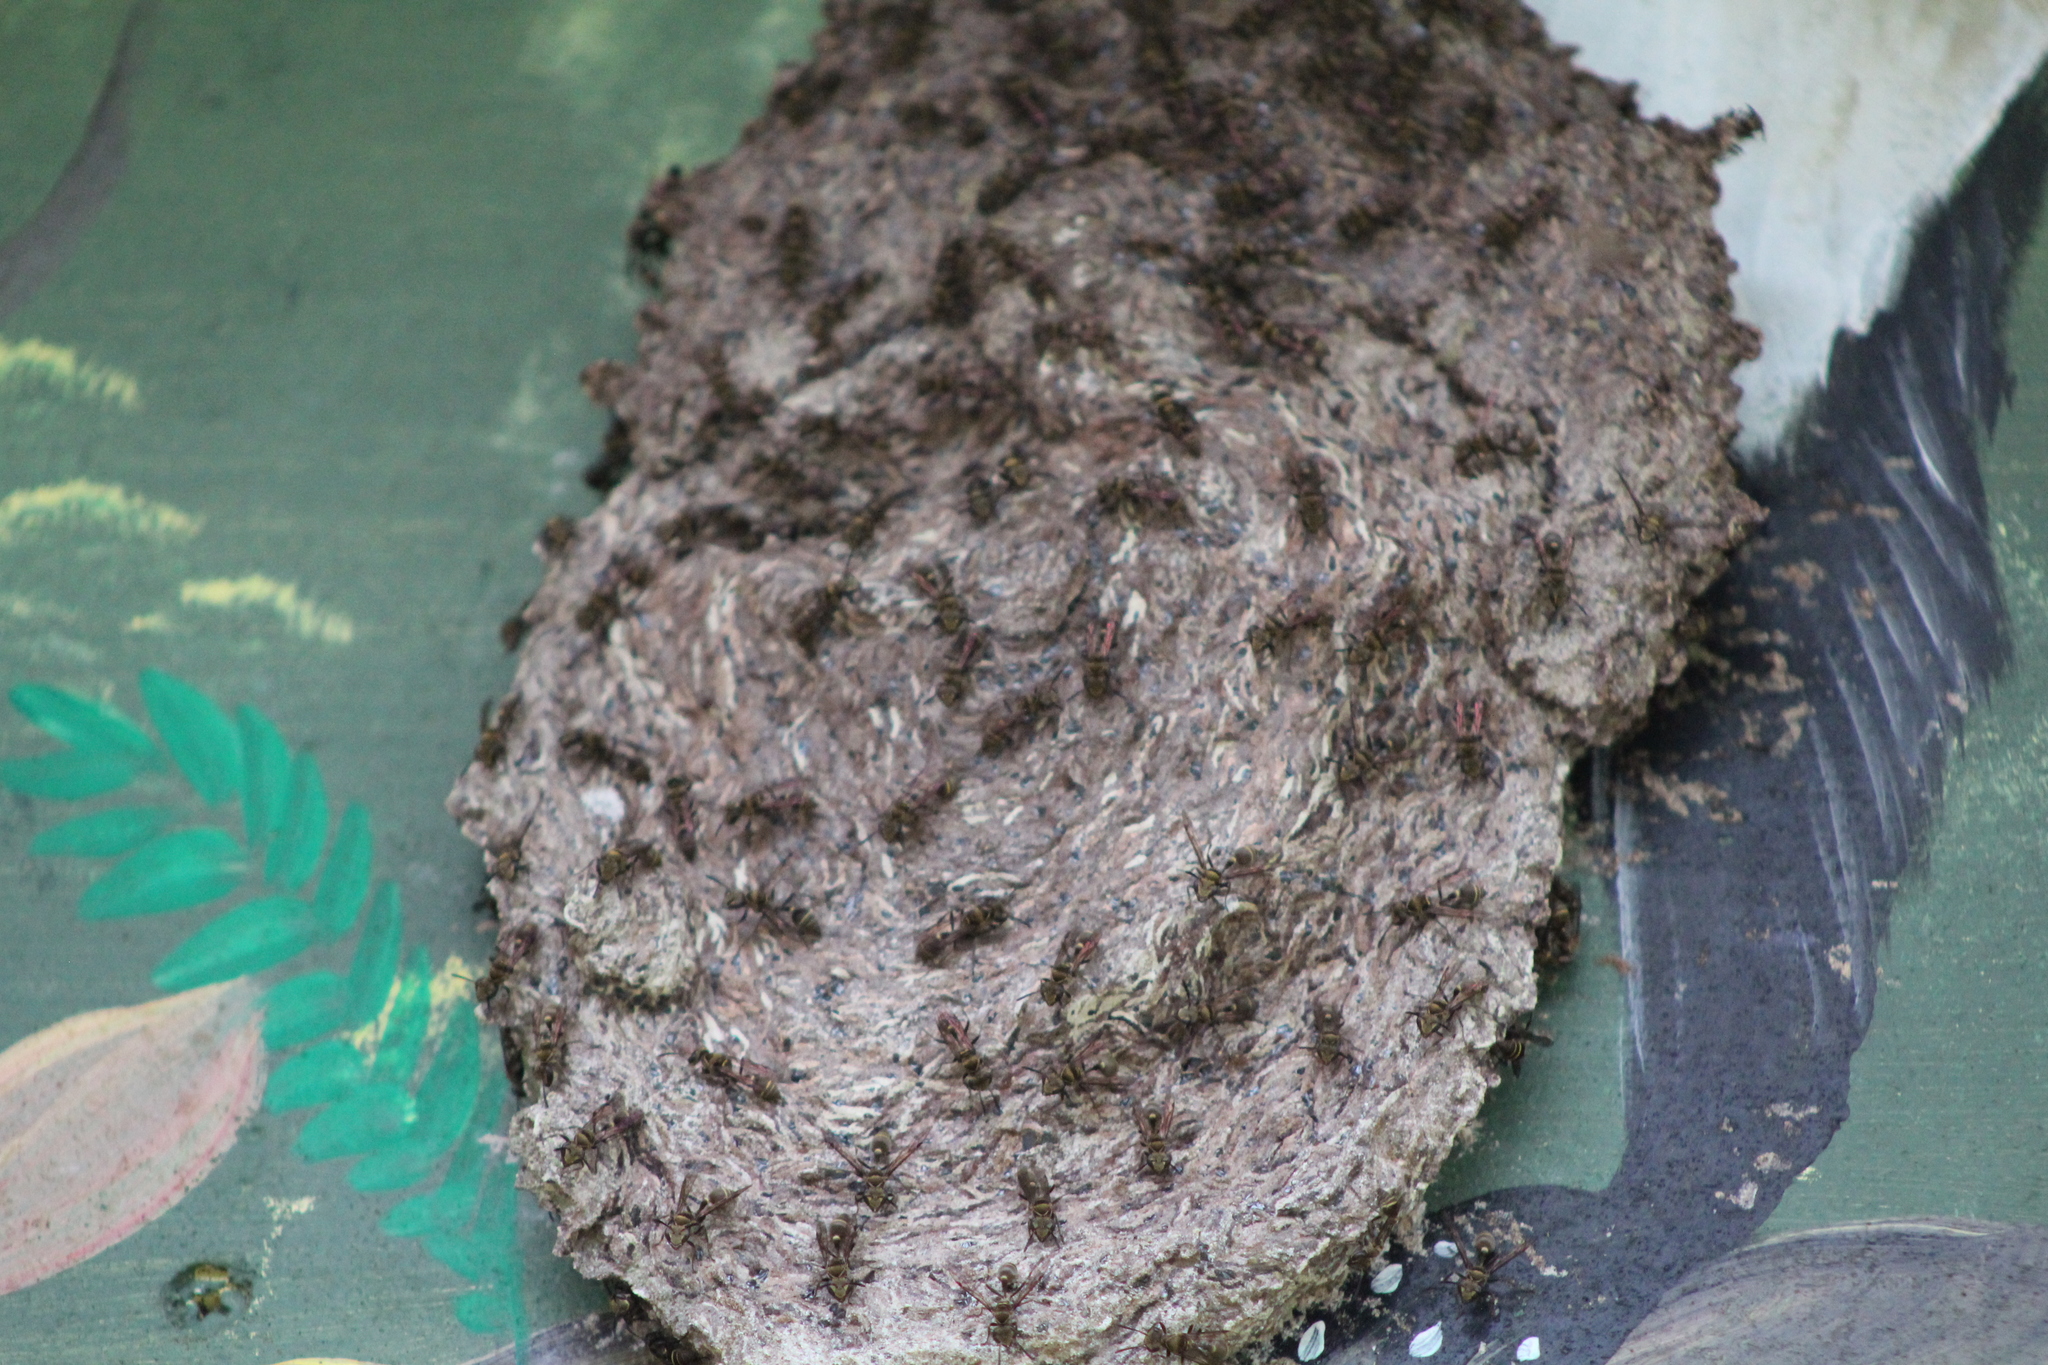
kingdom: Animalia
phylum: Arthropoda
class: Insecta
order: Hymenoptera
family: Vespidae
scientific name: Vespidae
